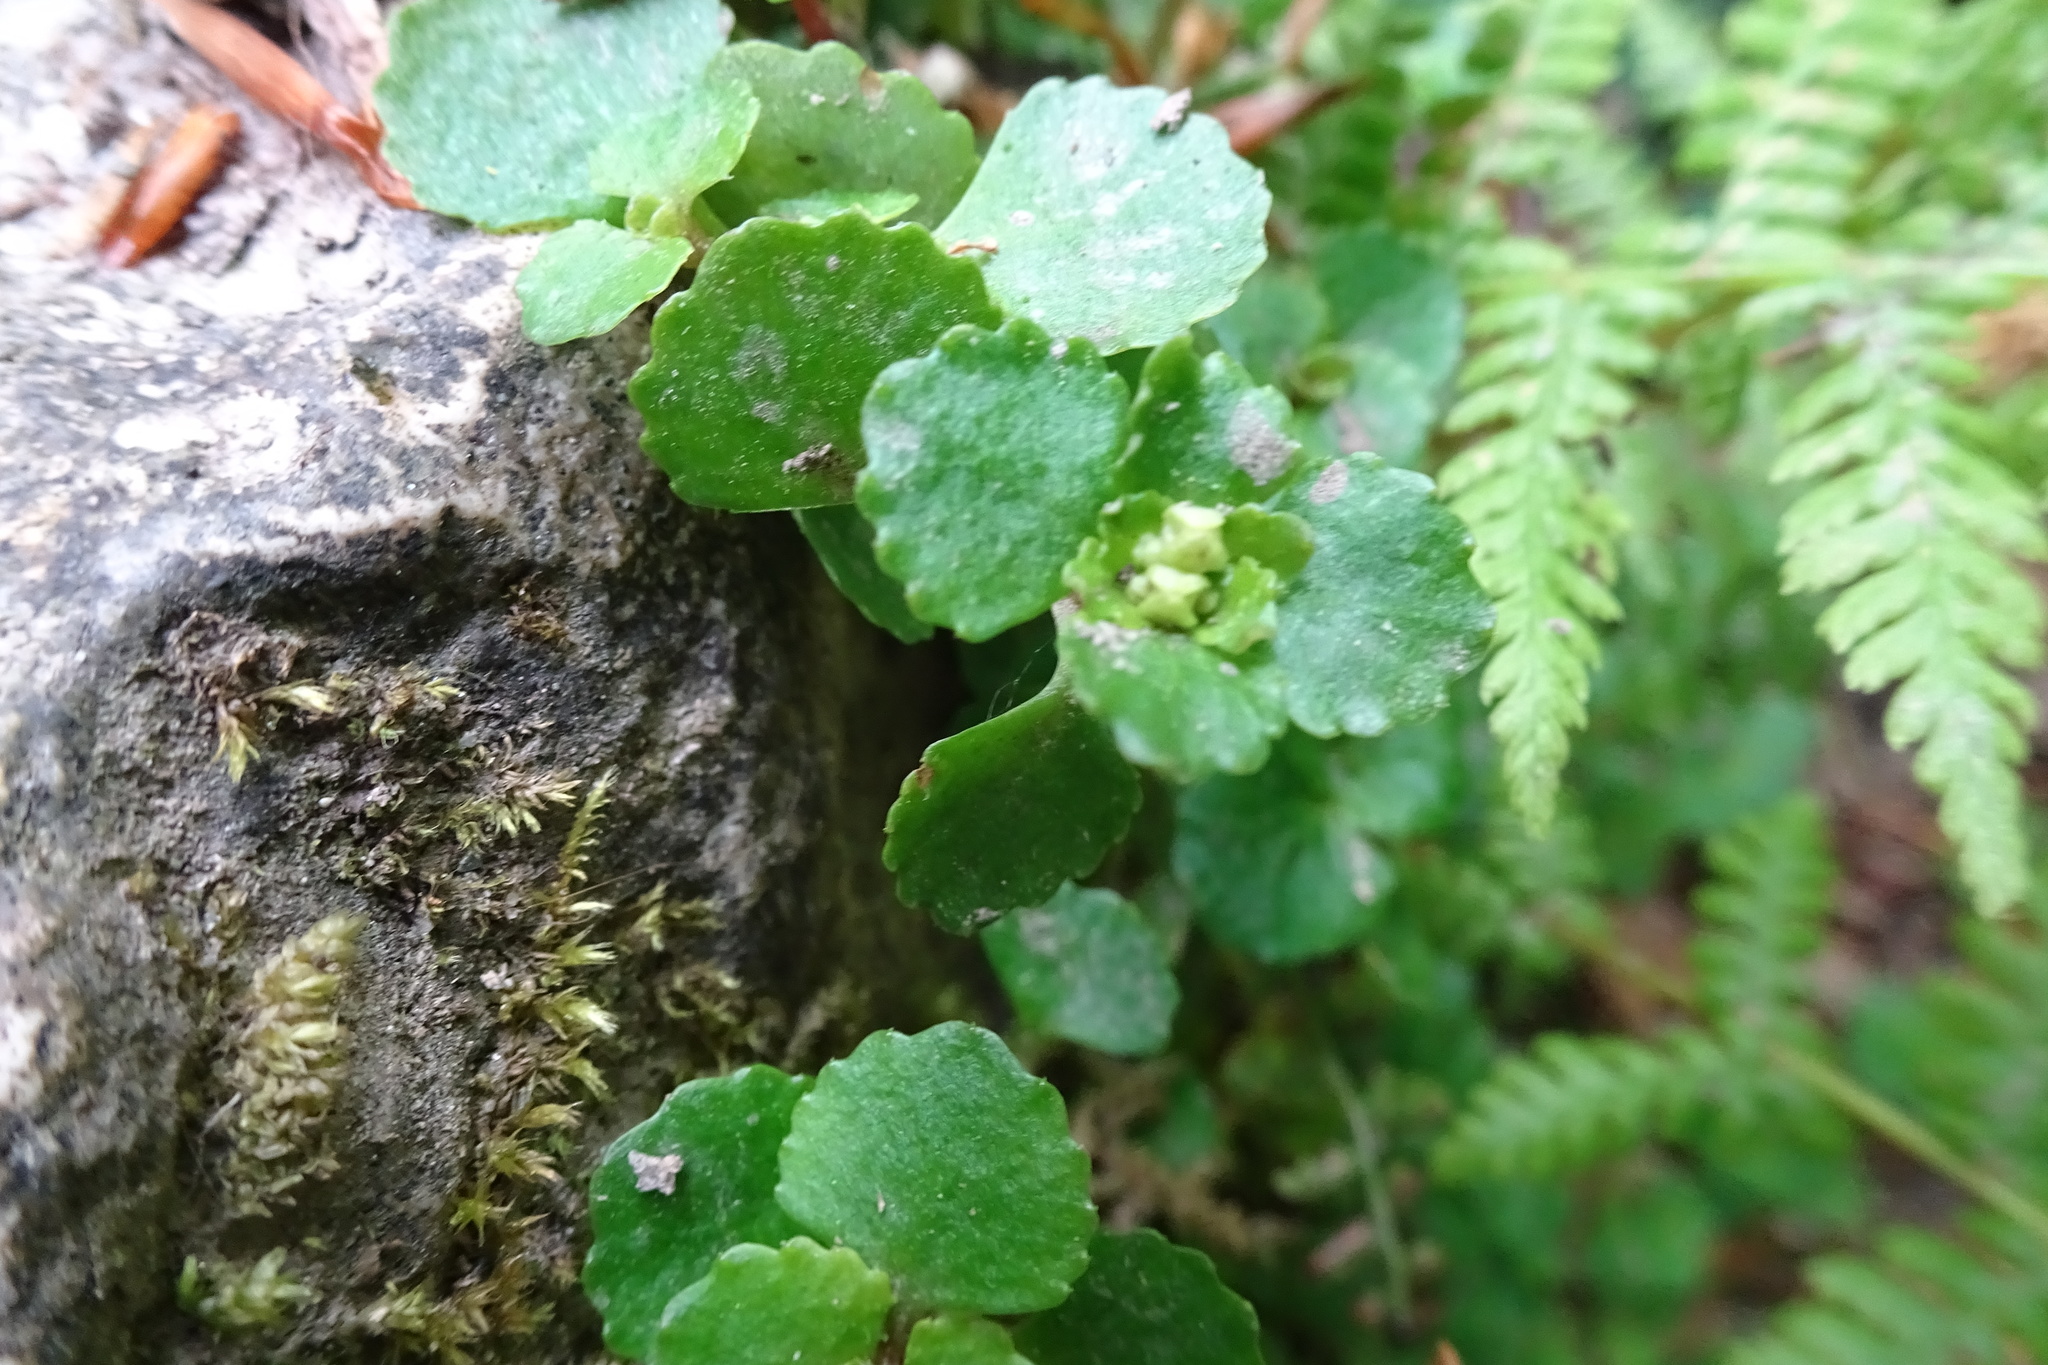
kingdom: Plantae
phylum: Tracheophyta
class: Magnoliopsida
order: Saxifragales
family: Saxifragaceae
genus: Chrysosplenium
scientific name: Chrysosplenium oppositifolium
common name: Opposite-leaved golden-saxifrage
